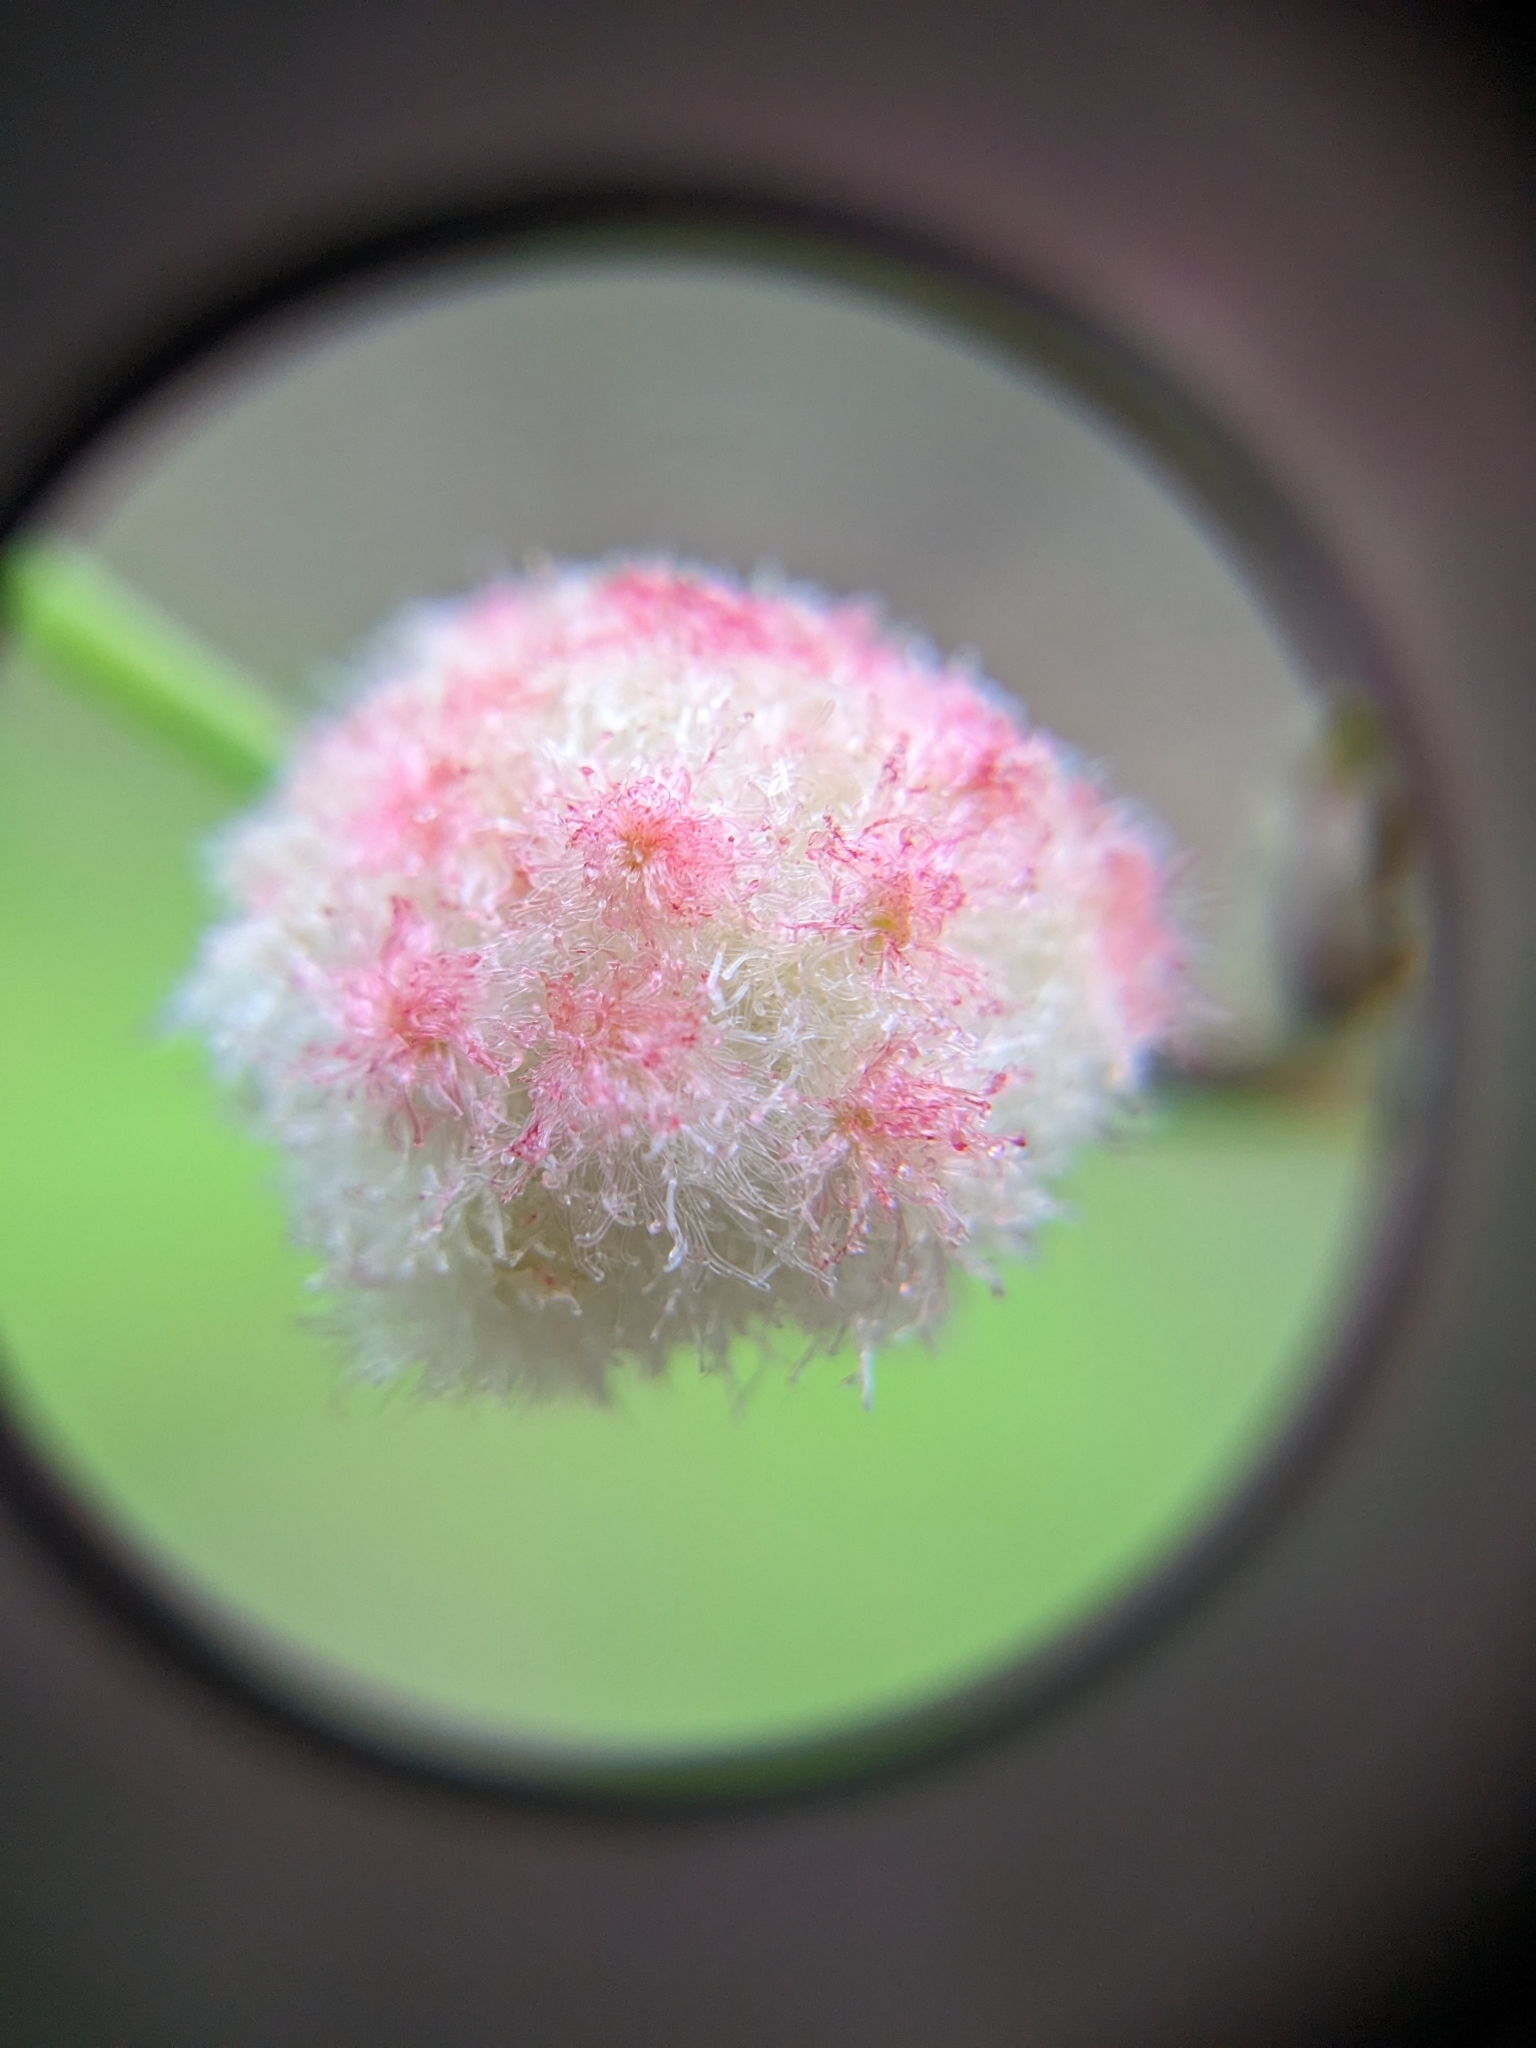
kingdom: Animalia
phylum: Arthropoda
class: Insecta
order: Hymenoptera
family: Cynipidae
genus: Callirhytis
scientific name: Callirhytis
